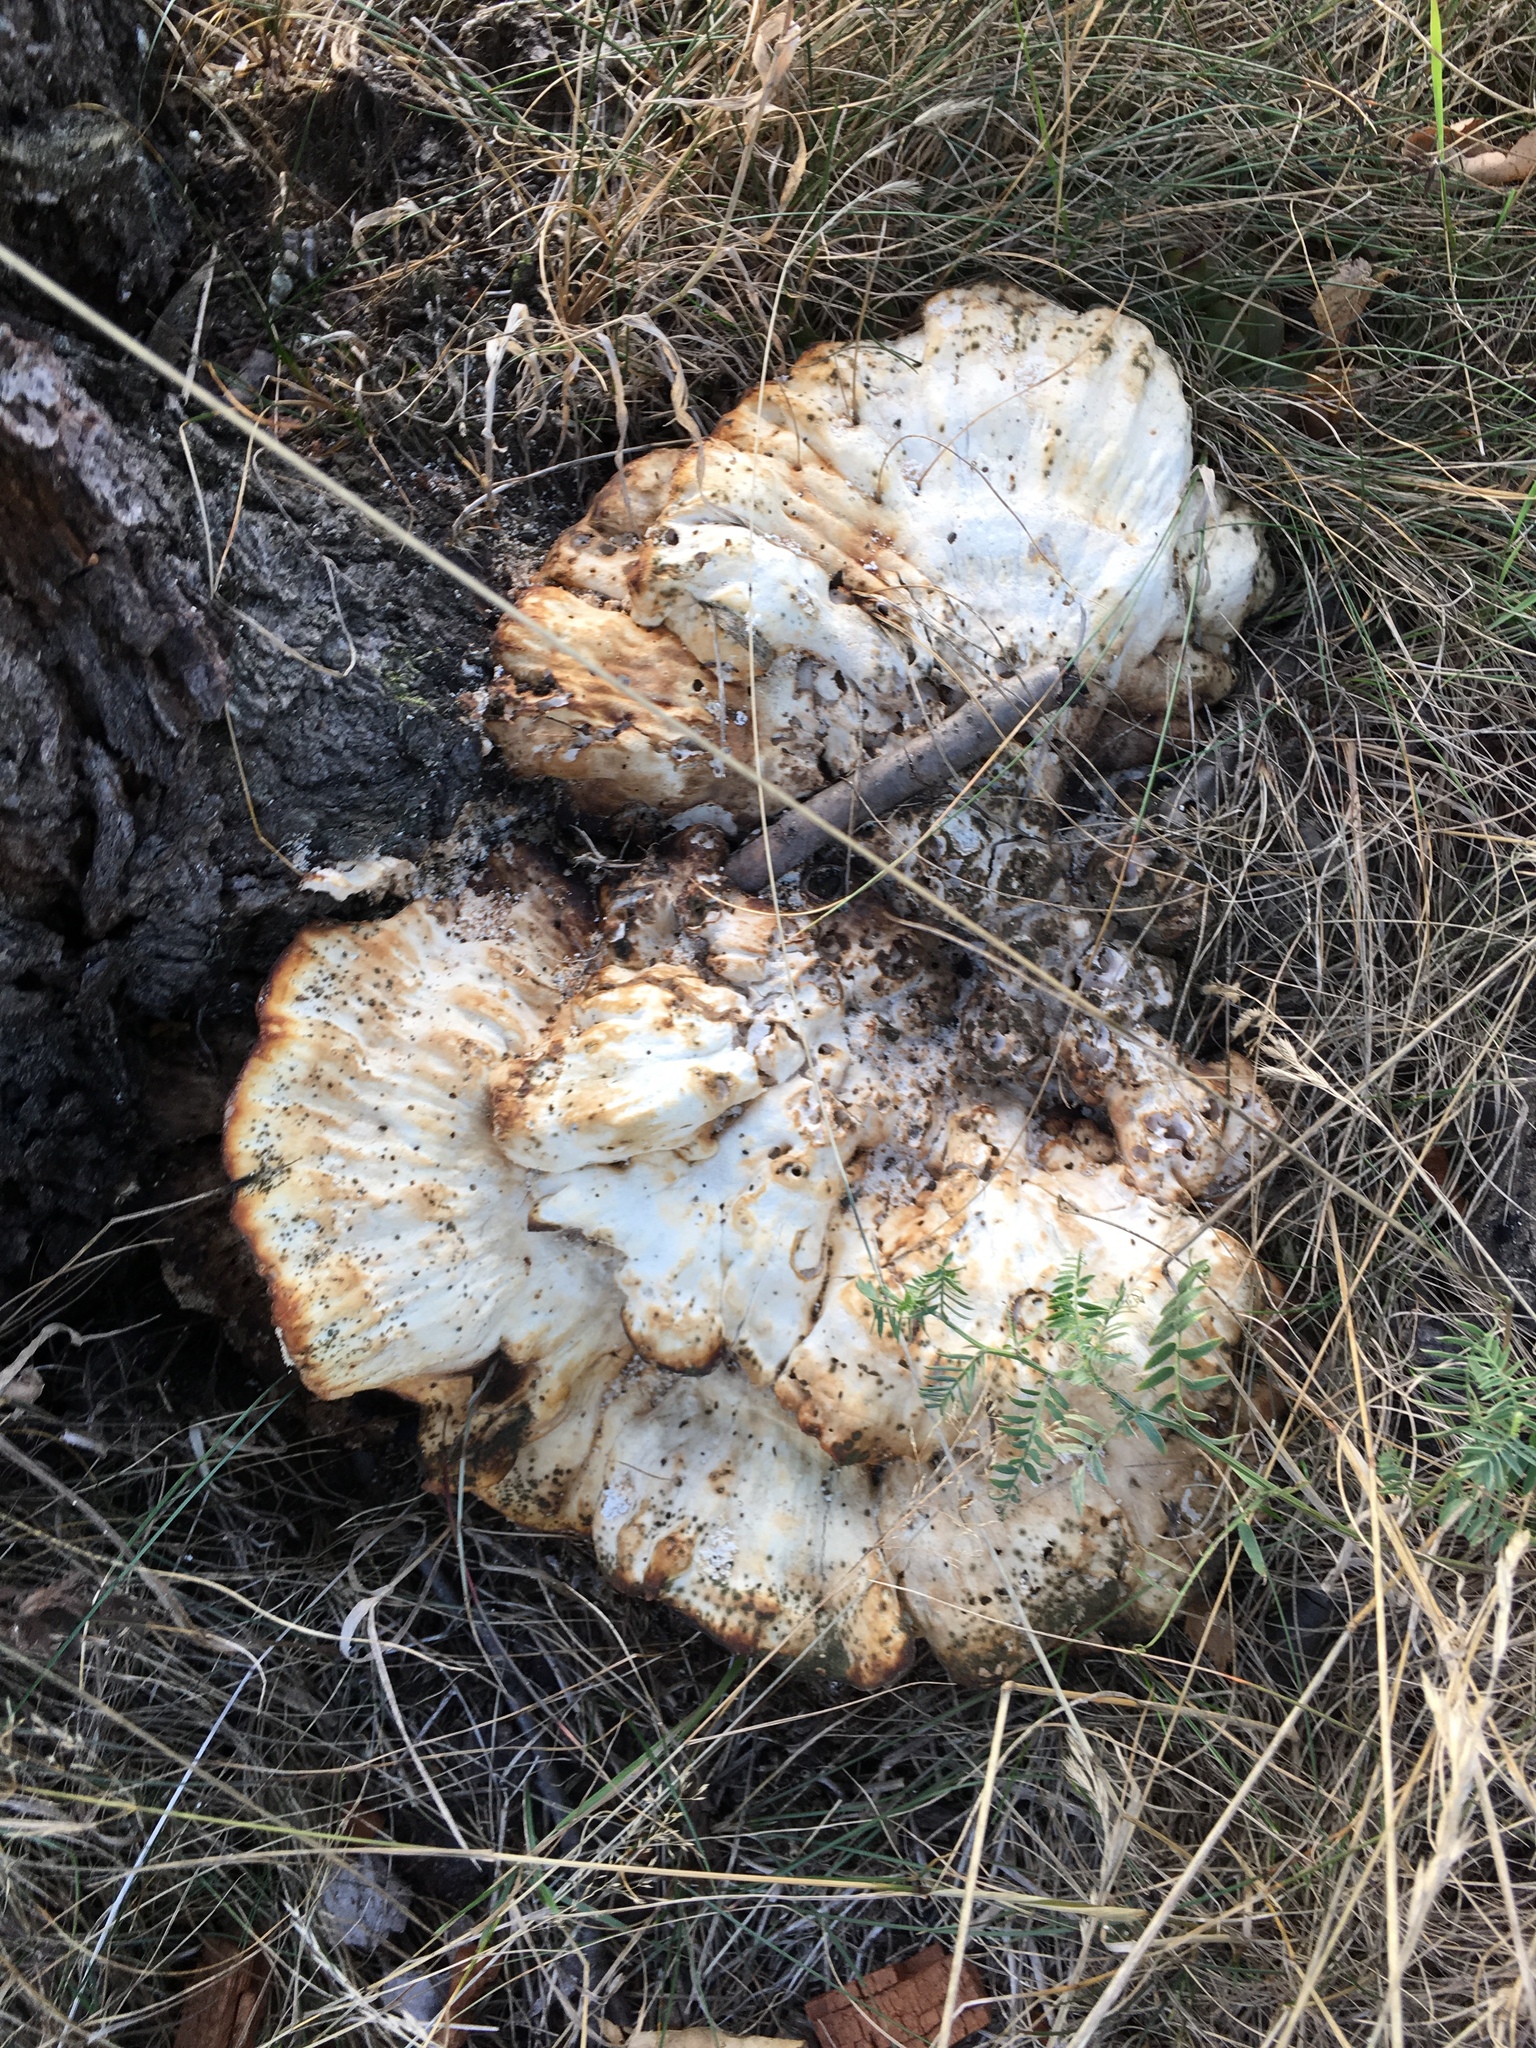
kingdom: Fungi
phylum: Basidiomycota
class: Agaricomycetes
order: Polyporales
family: Laetiporaceae
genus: Laetiporus
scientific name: Laetiporus sulphureus
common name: Chicken of the woods
